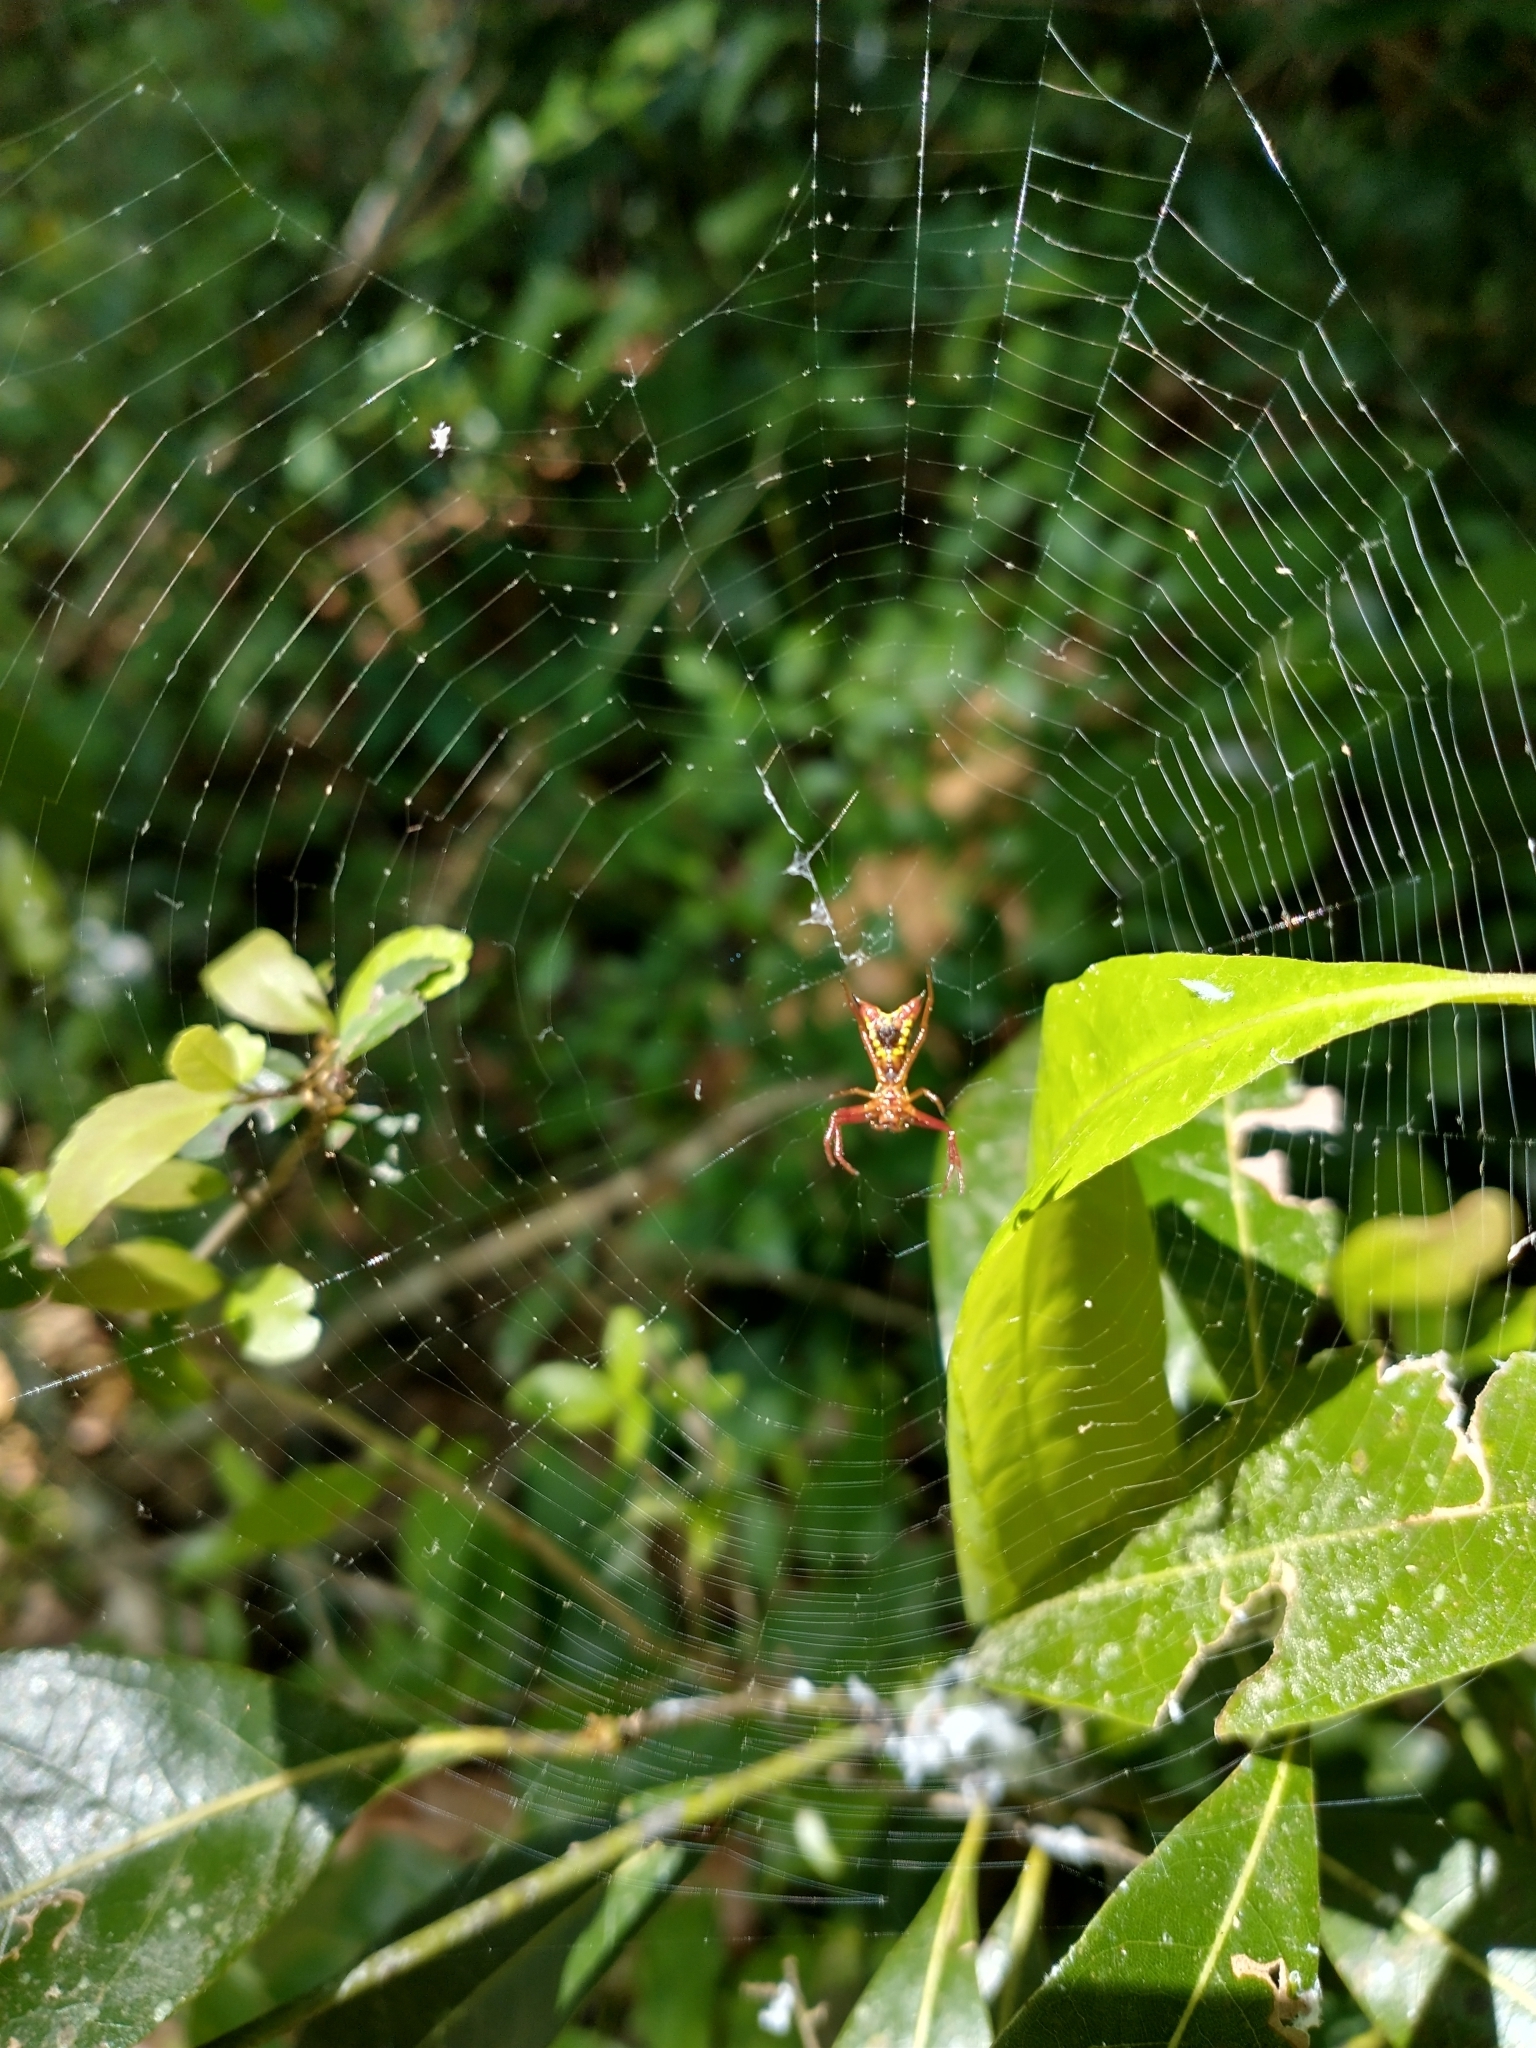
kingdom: Animalia
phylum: Arthropoda
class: Arachnida
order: Araneae
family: Araneidae
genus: Micrathena
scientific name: Micrathena sagittata
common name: Orb weavers
